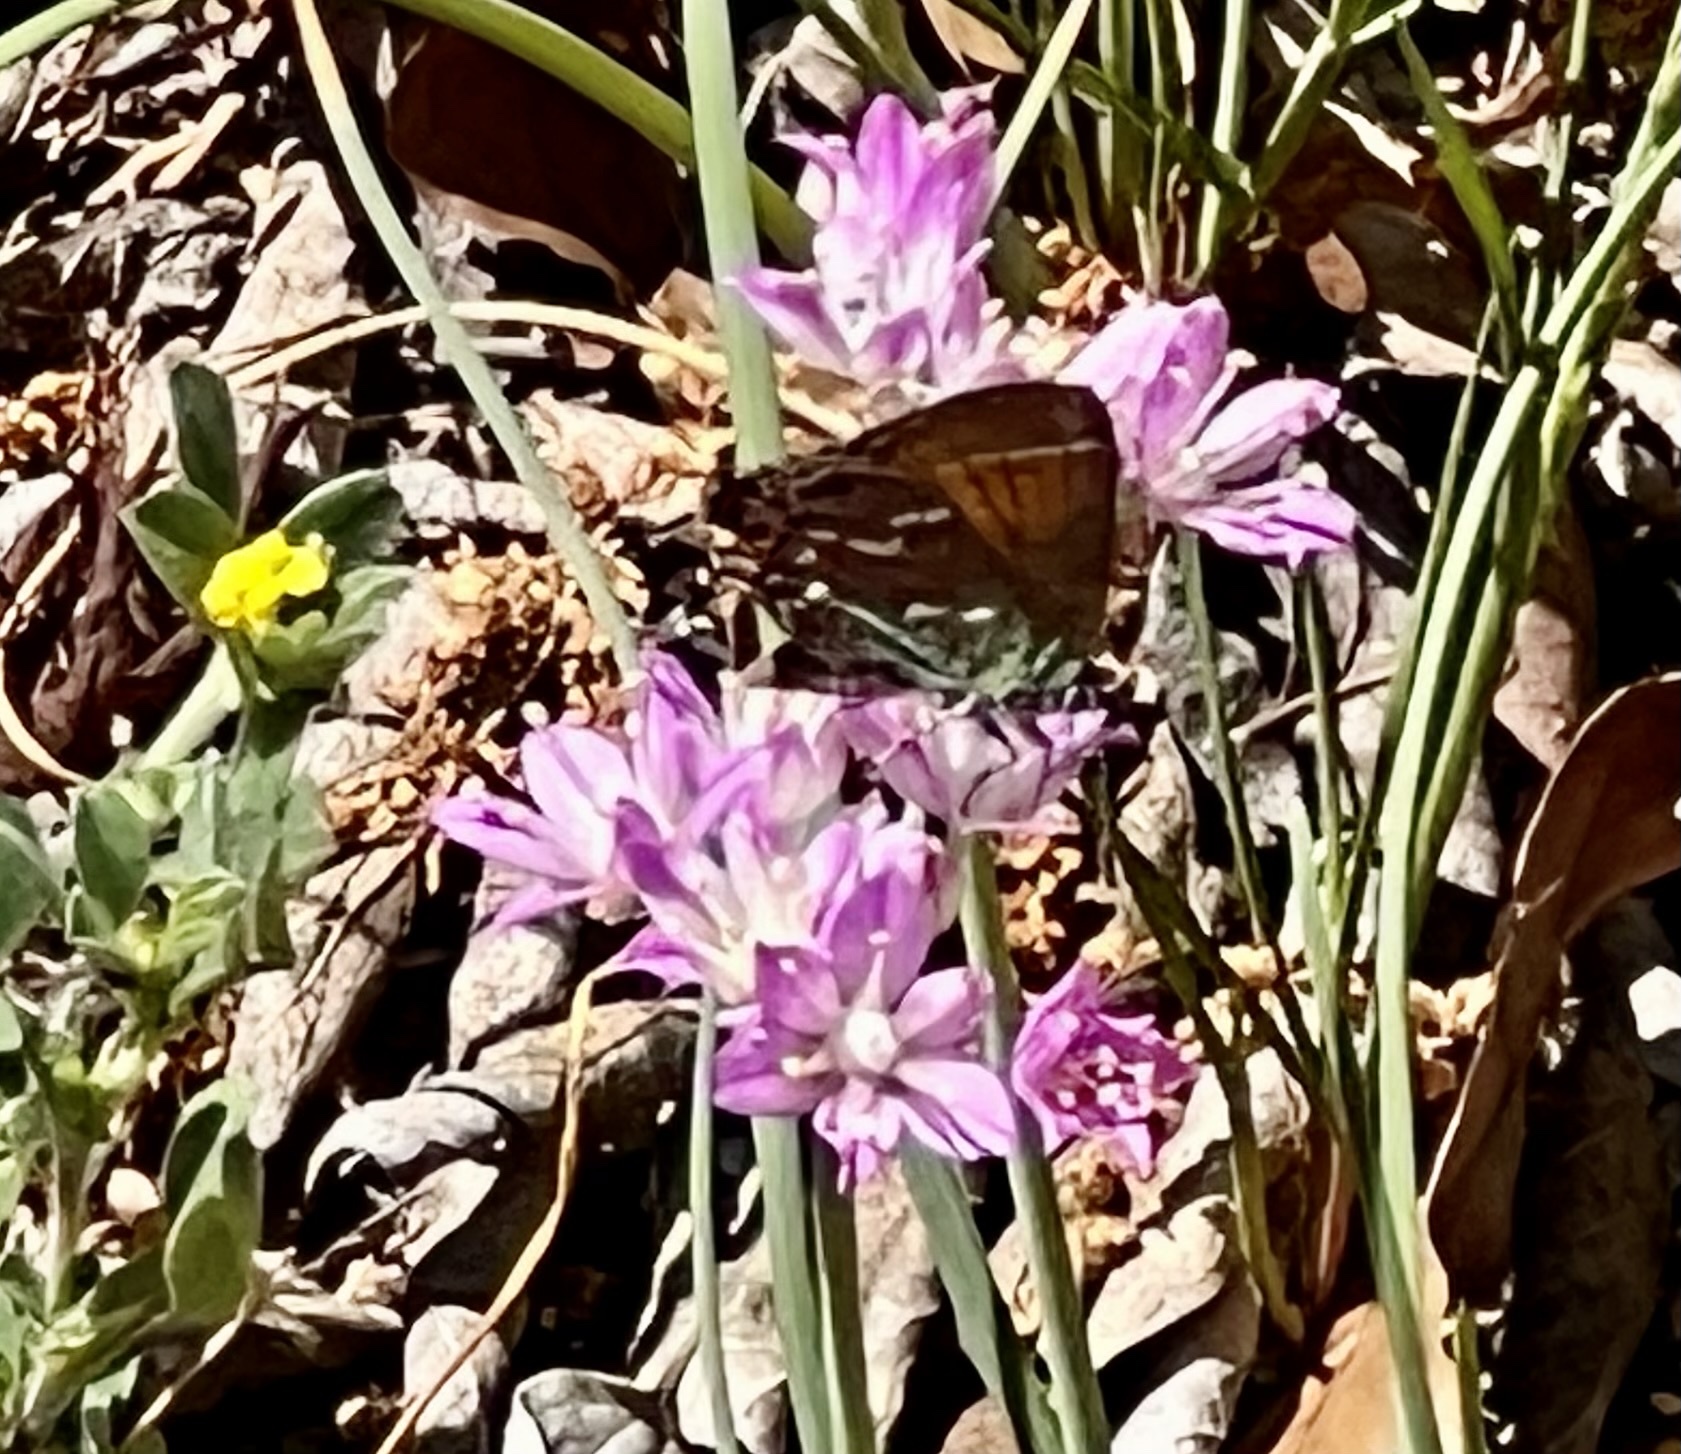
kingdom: Animalia
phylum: Arthropoda
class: Insecta
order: Lepidoptera
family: Lycaenidae
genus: Mitoura
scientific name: Mitoura gryneus
